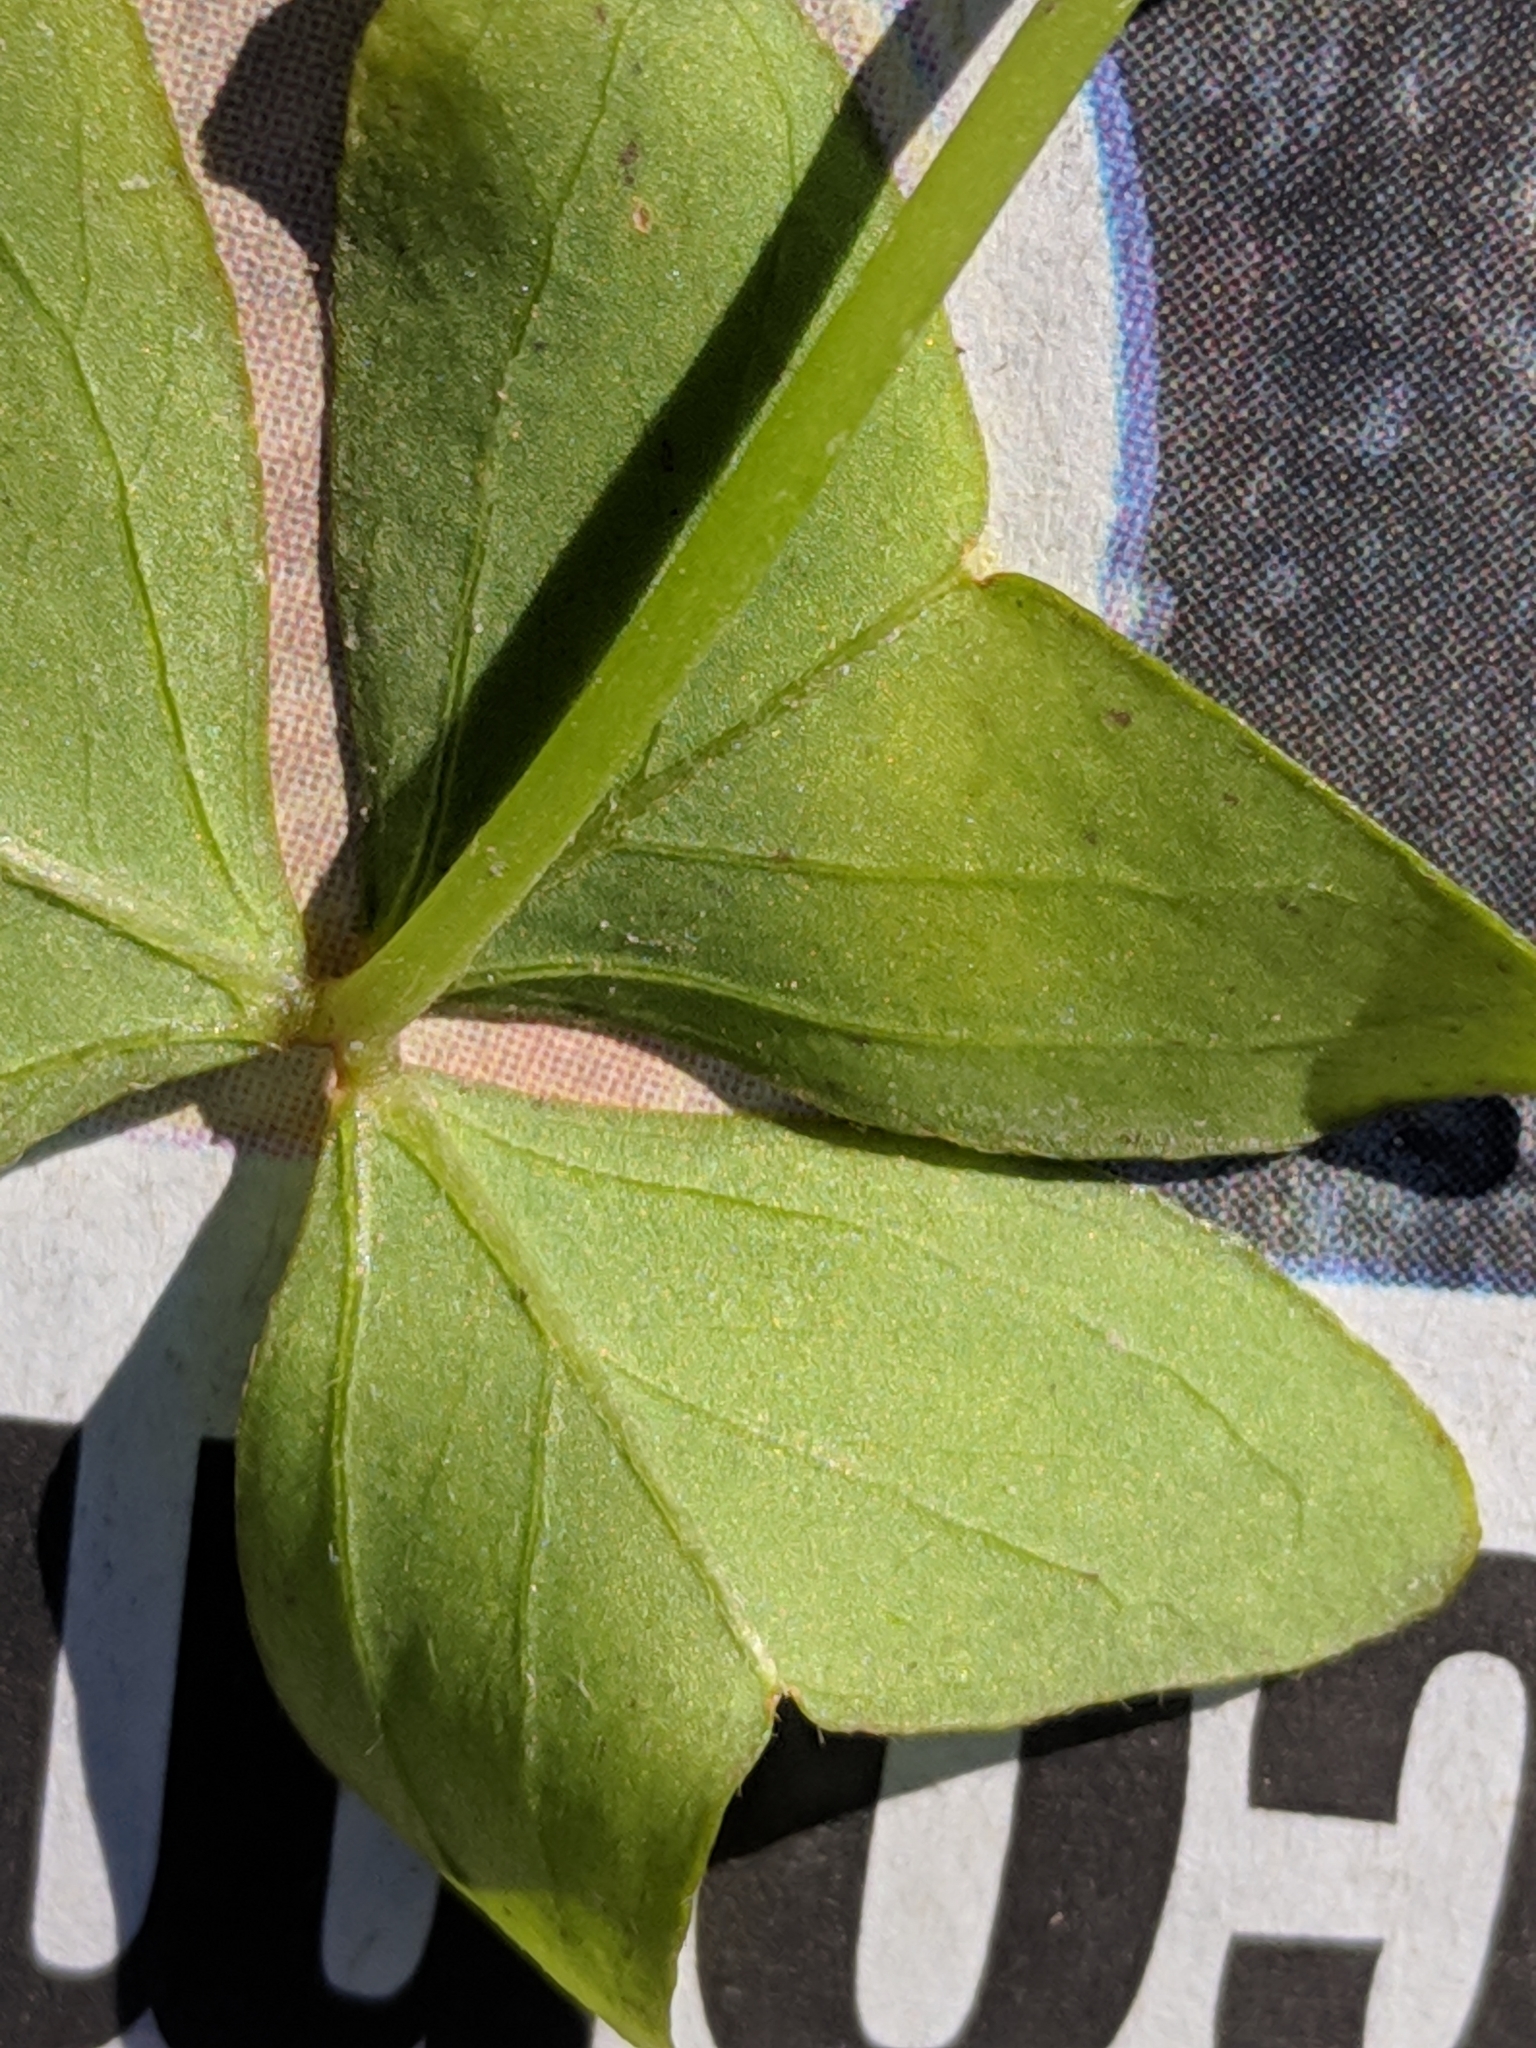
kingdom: Plantae
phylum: Tracheophyta
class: Magnoliopsida
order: Oxalidales
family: Oxalidaceae
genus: Oxalis
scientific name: Oxalis intermedia
